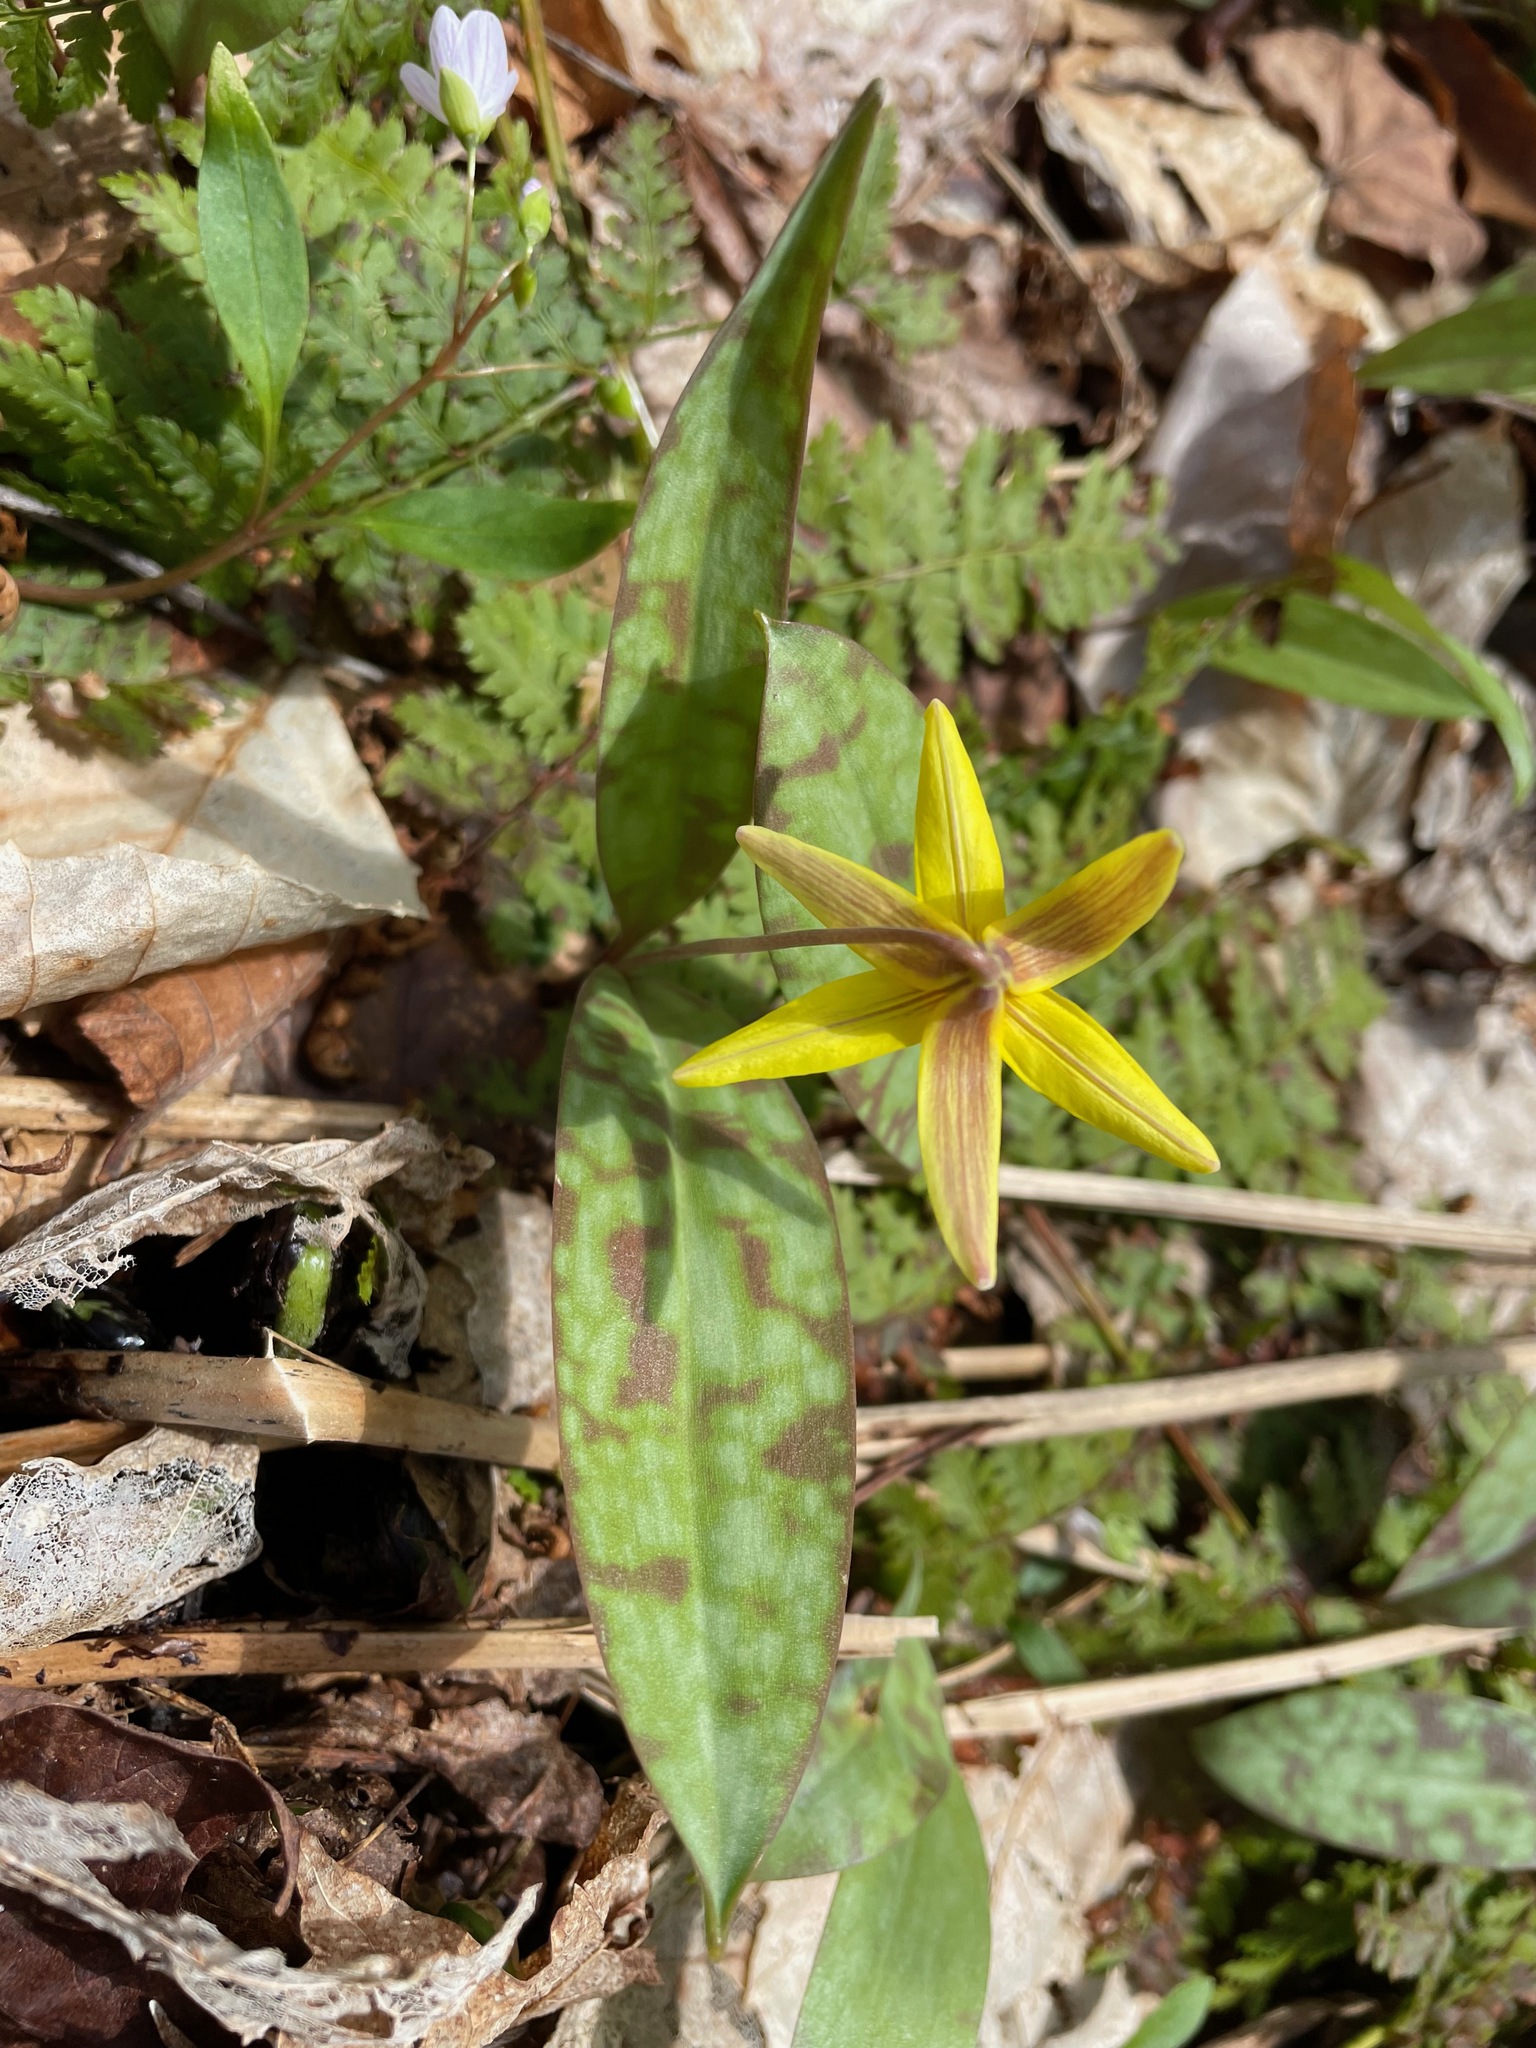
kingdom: Plantae
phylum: Tracheophyta
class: Liliopsida
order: Liliales
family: Liliaceae
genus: Erythronium
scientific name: Erythronium americanum
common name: Yellow adder's-tongue
